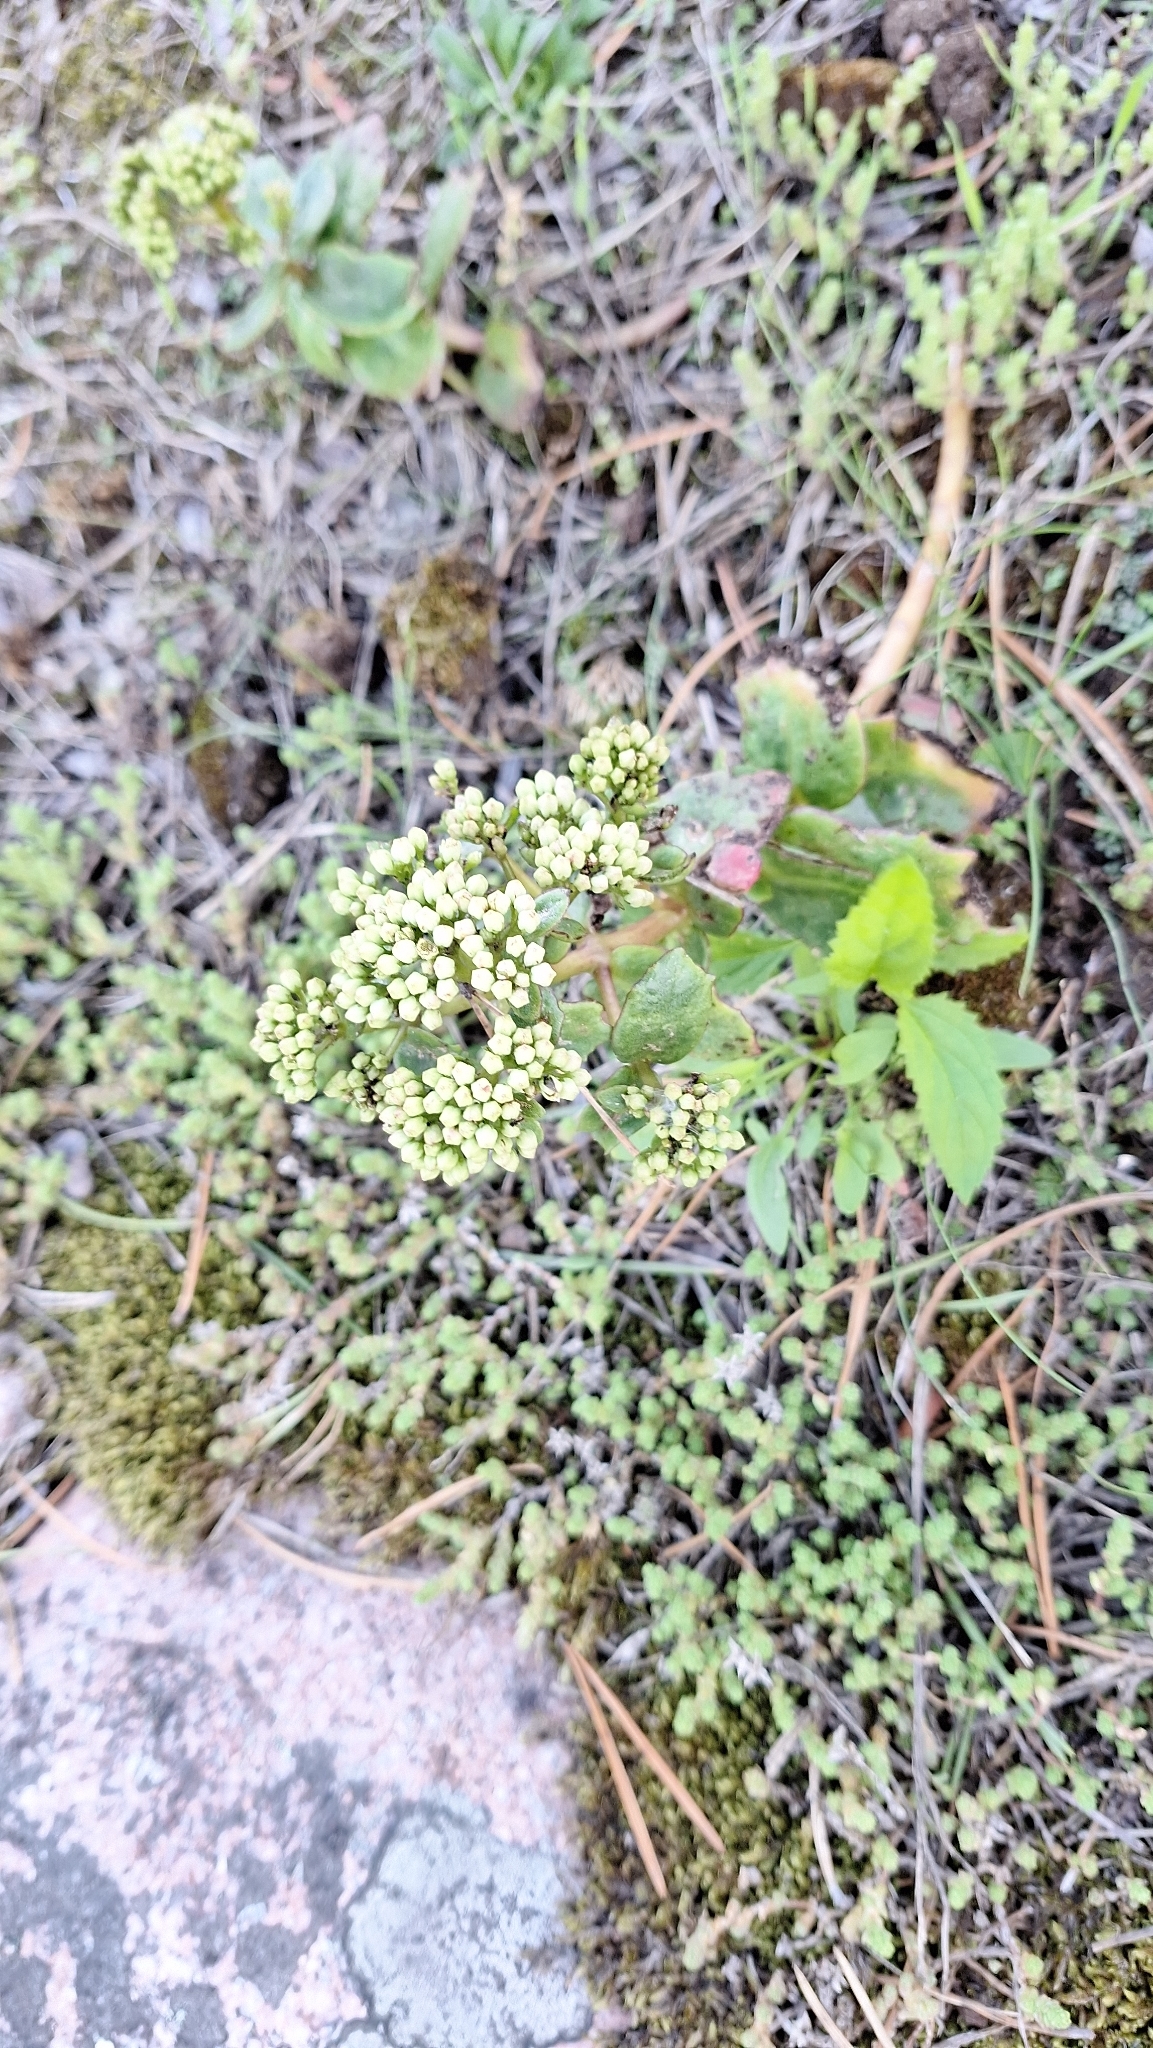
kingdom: Plantae
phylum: Tracheophyta
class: Magnoliopsida
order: Saxifragales
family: Crassulaceae
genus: Hylotelephium
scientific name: Hylotelephium maximum
